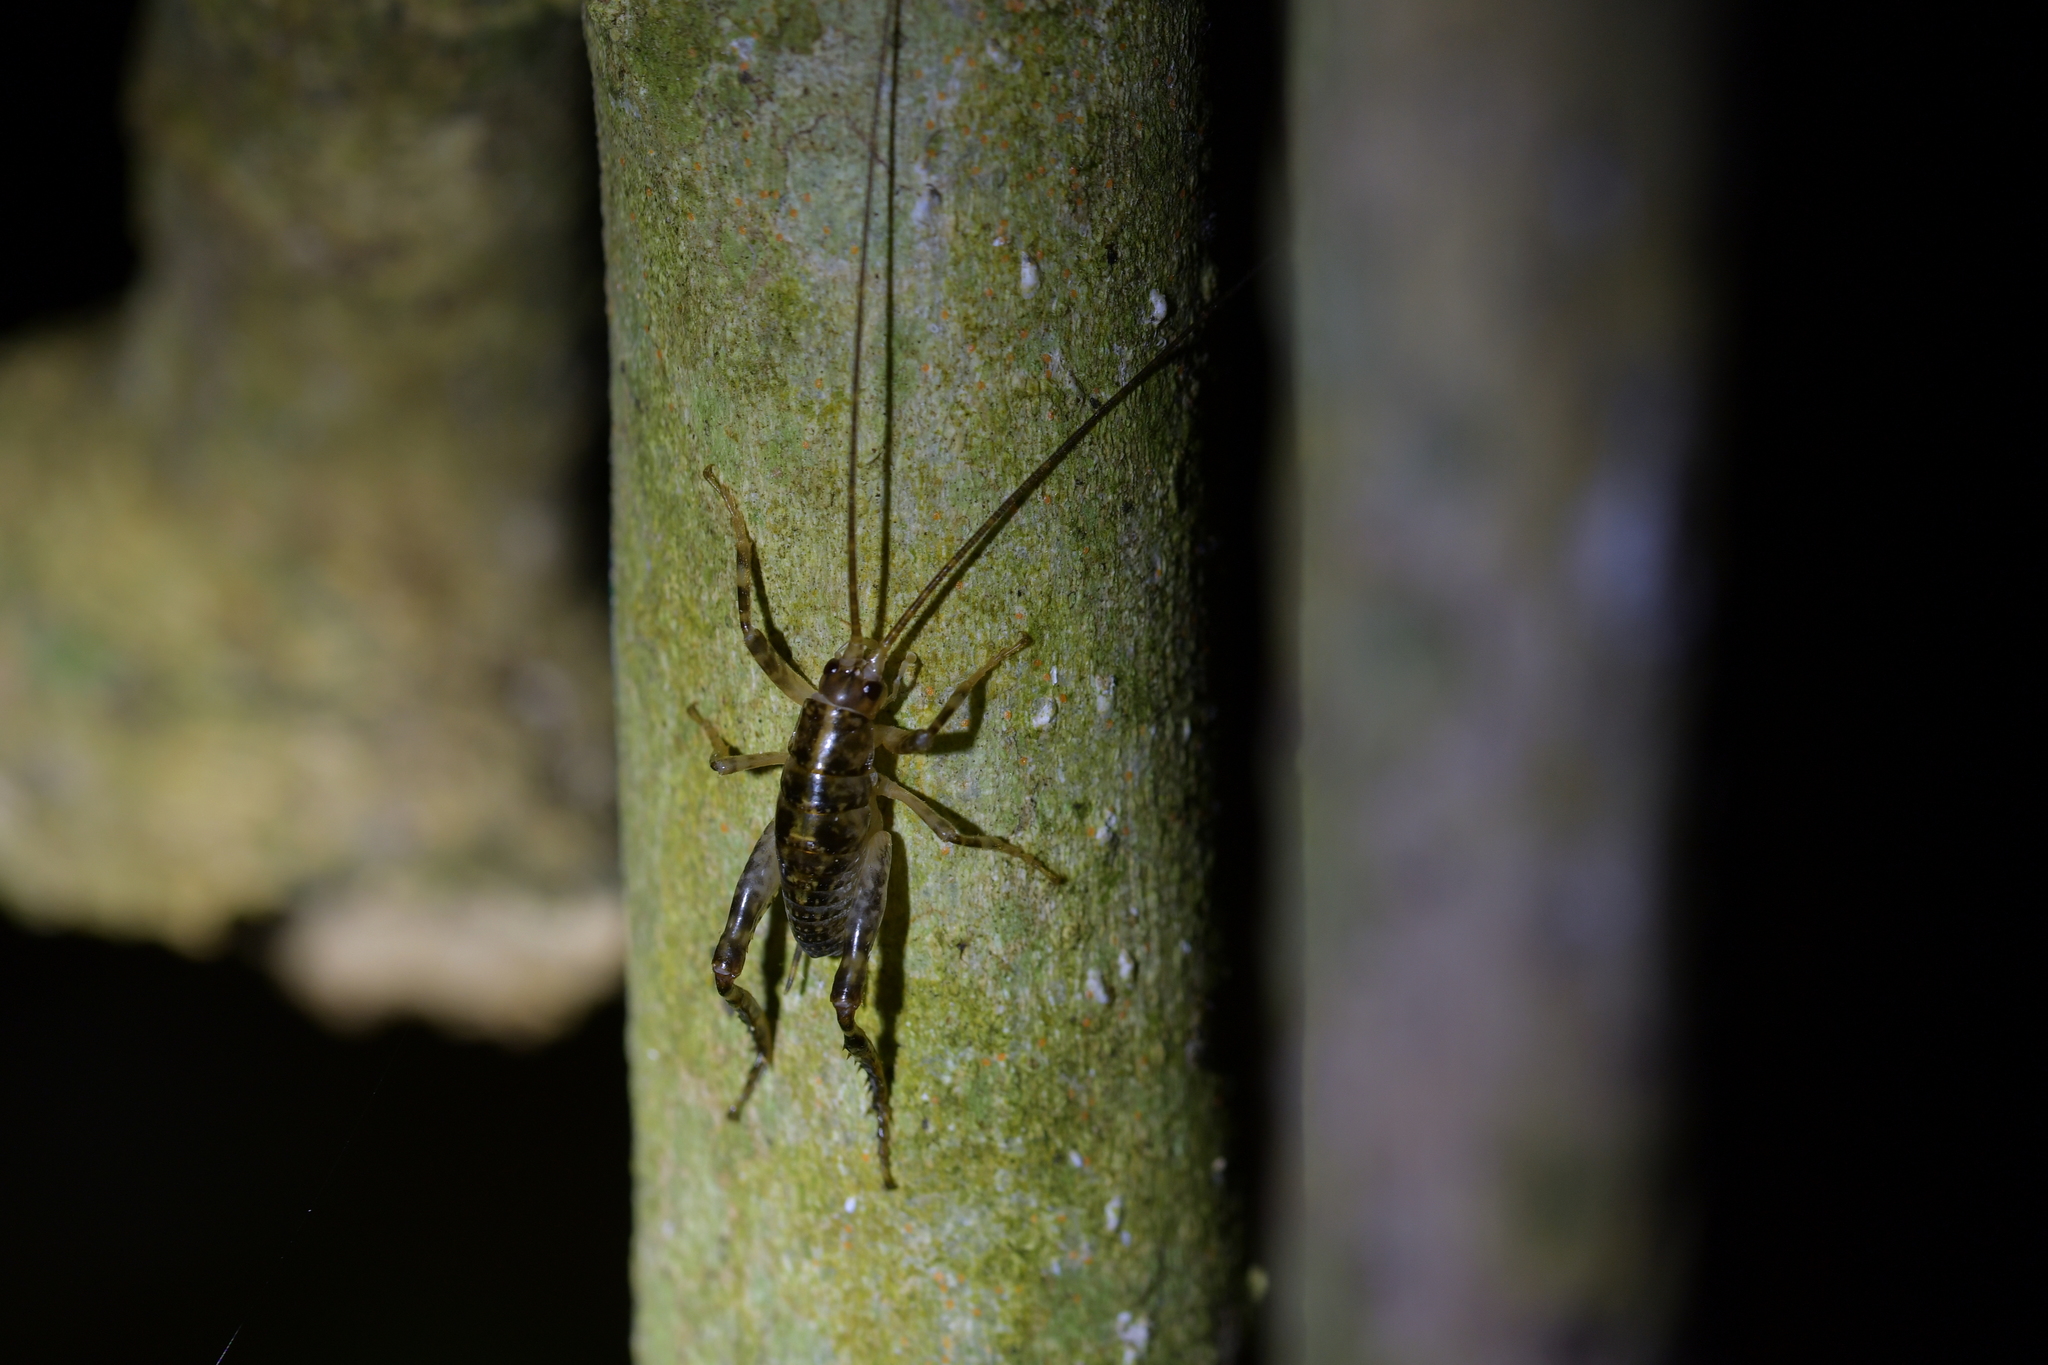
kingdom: Animalia
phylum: Arthropoda
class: Insecta
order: Orthoptera
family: Rhaphidophoridae
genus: Talitropsis
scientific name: Talitropsis sedilloti
